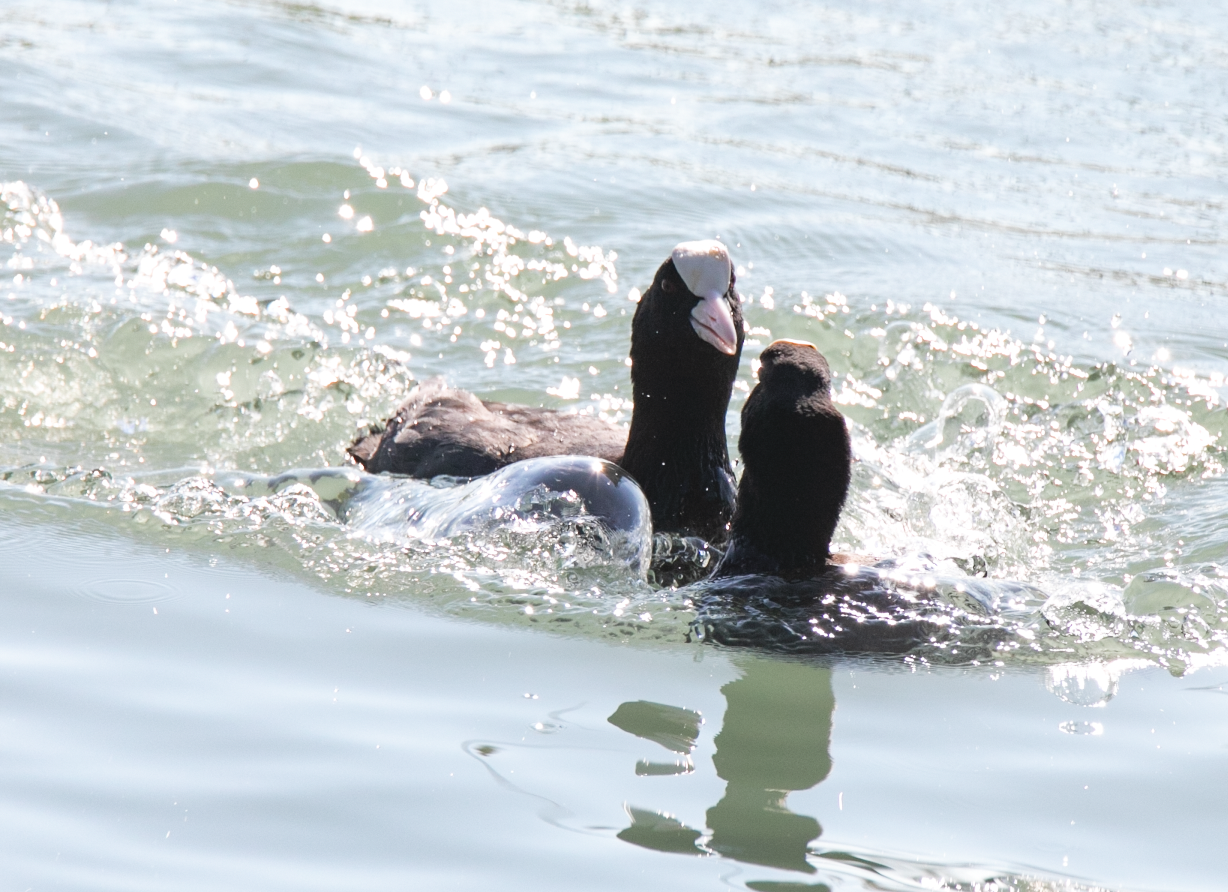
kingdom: Animalia
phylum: Chordata
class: Aves
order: Gruiformes
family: Rallidae
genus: Fulica
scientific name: Fulica atra
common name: Eurasian coot
